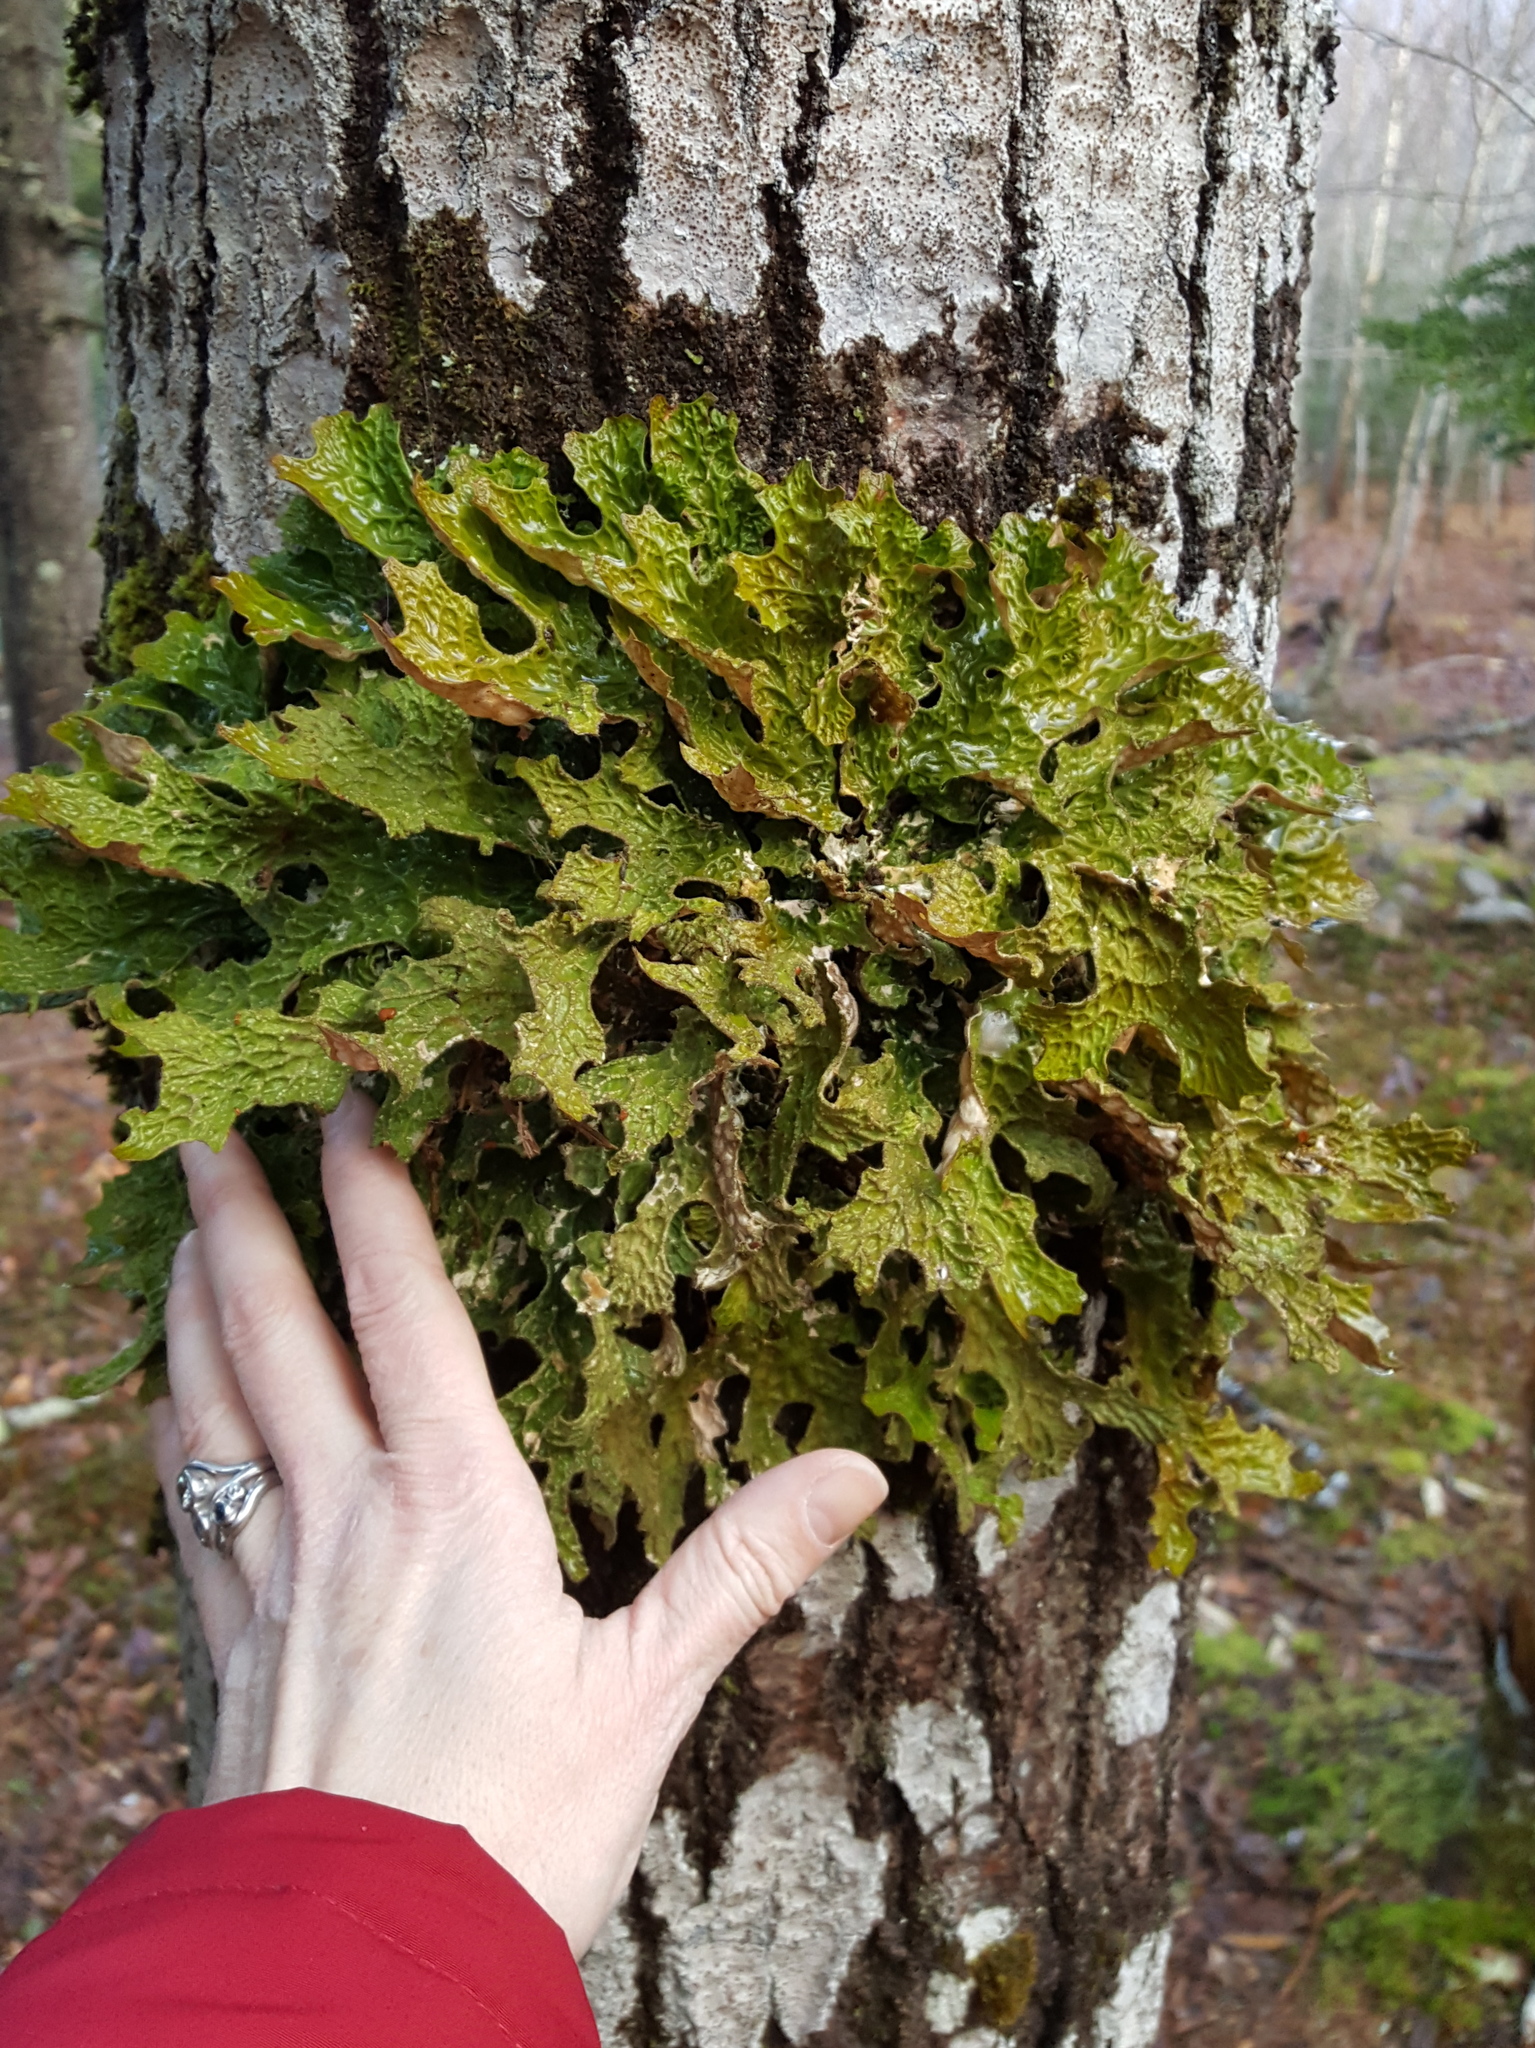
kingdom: Fungi
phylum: Ascomycota
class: Lecanoromycetes
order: Peltigerales
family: Lobariaceae
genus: Lobaria
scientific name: Lobaria pulmonaria
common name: Lungwort
